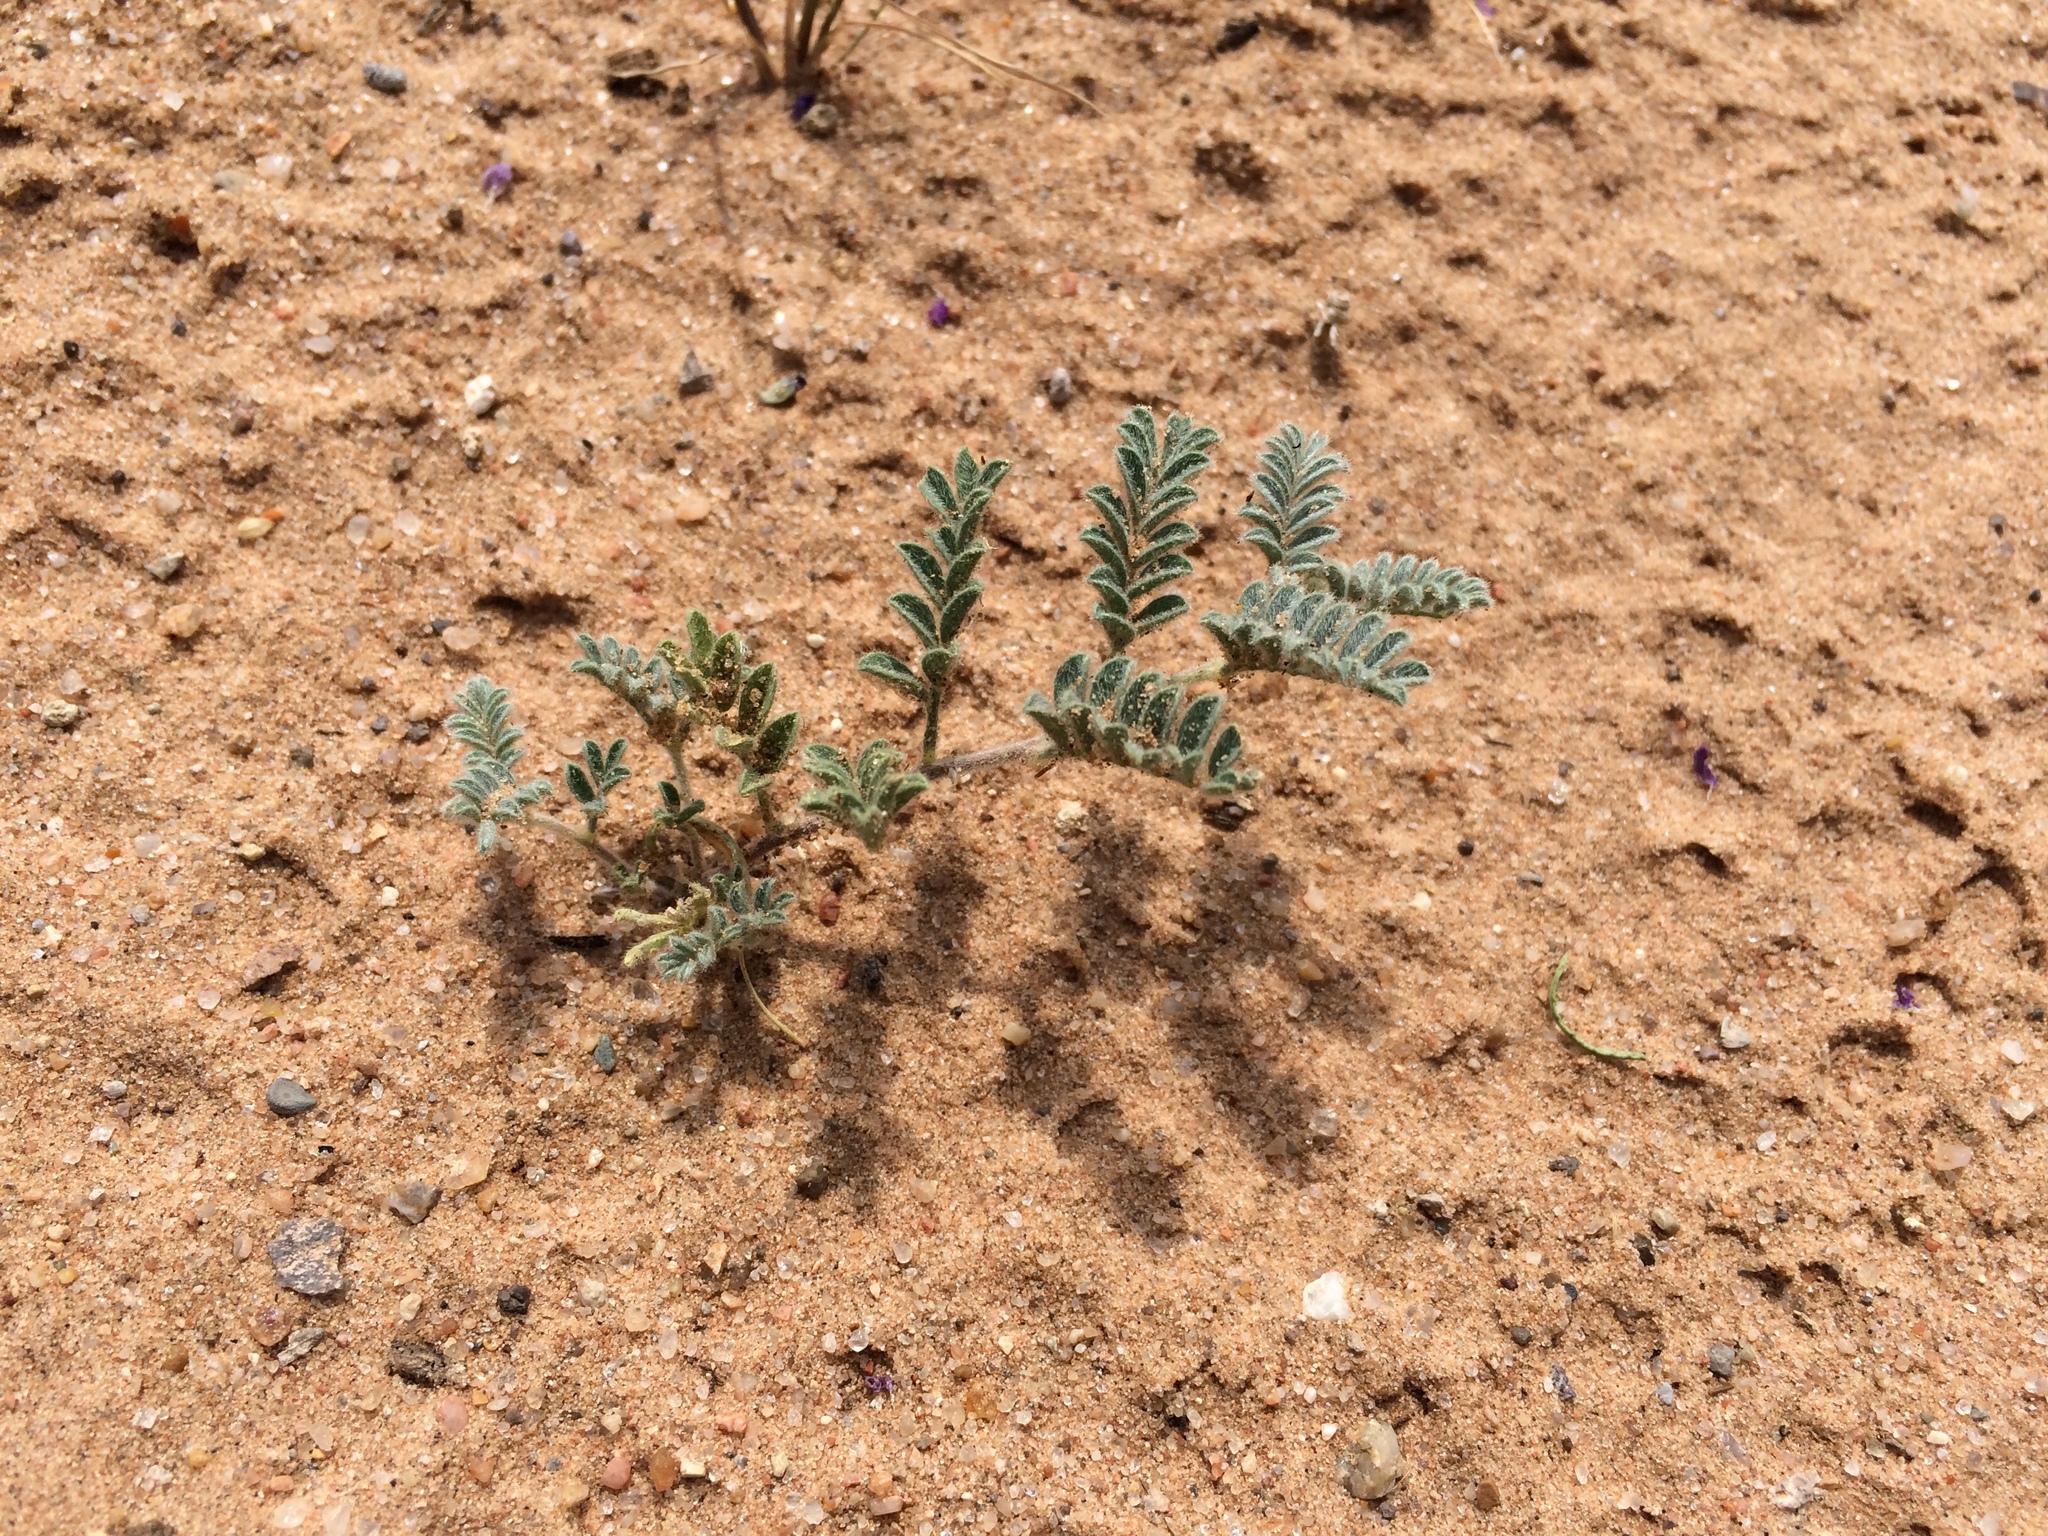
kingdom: Plantae
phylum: Tracheophyta
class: Magnoliopsida
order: Fabales
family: Fabaceae
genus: Dalea
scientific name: Dalea lanata
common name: Woolly dalea
